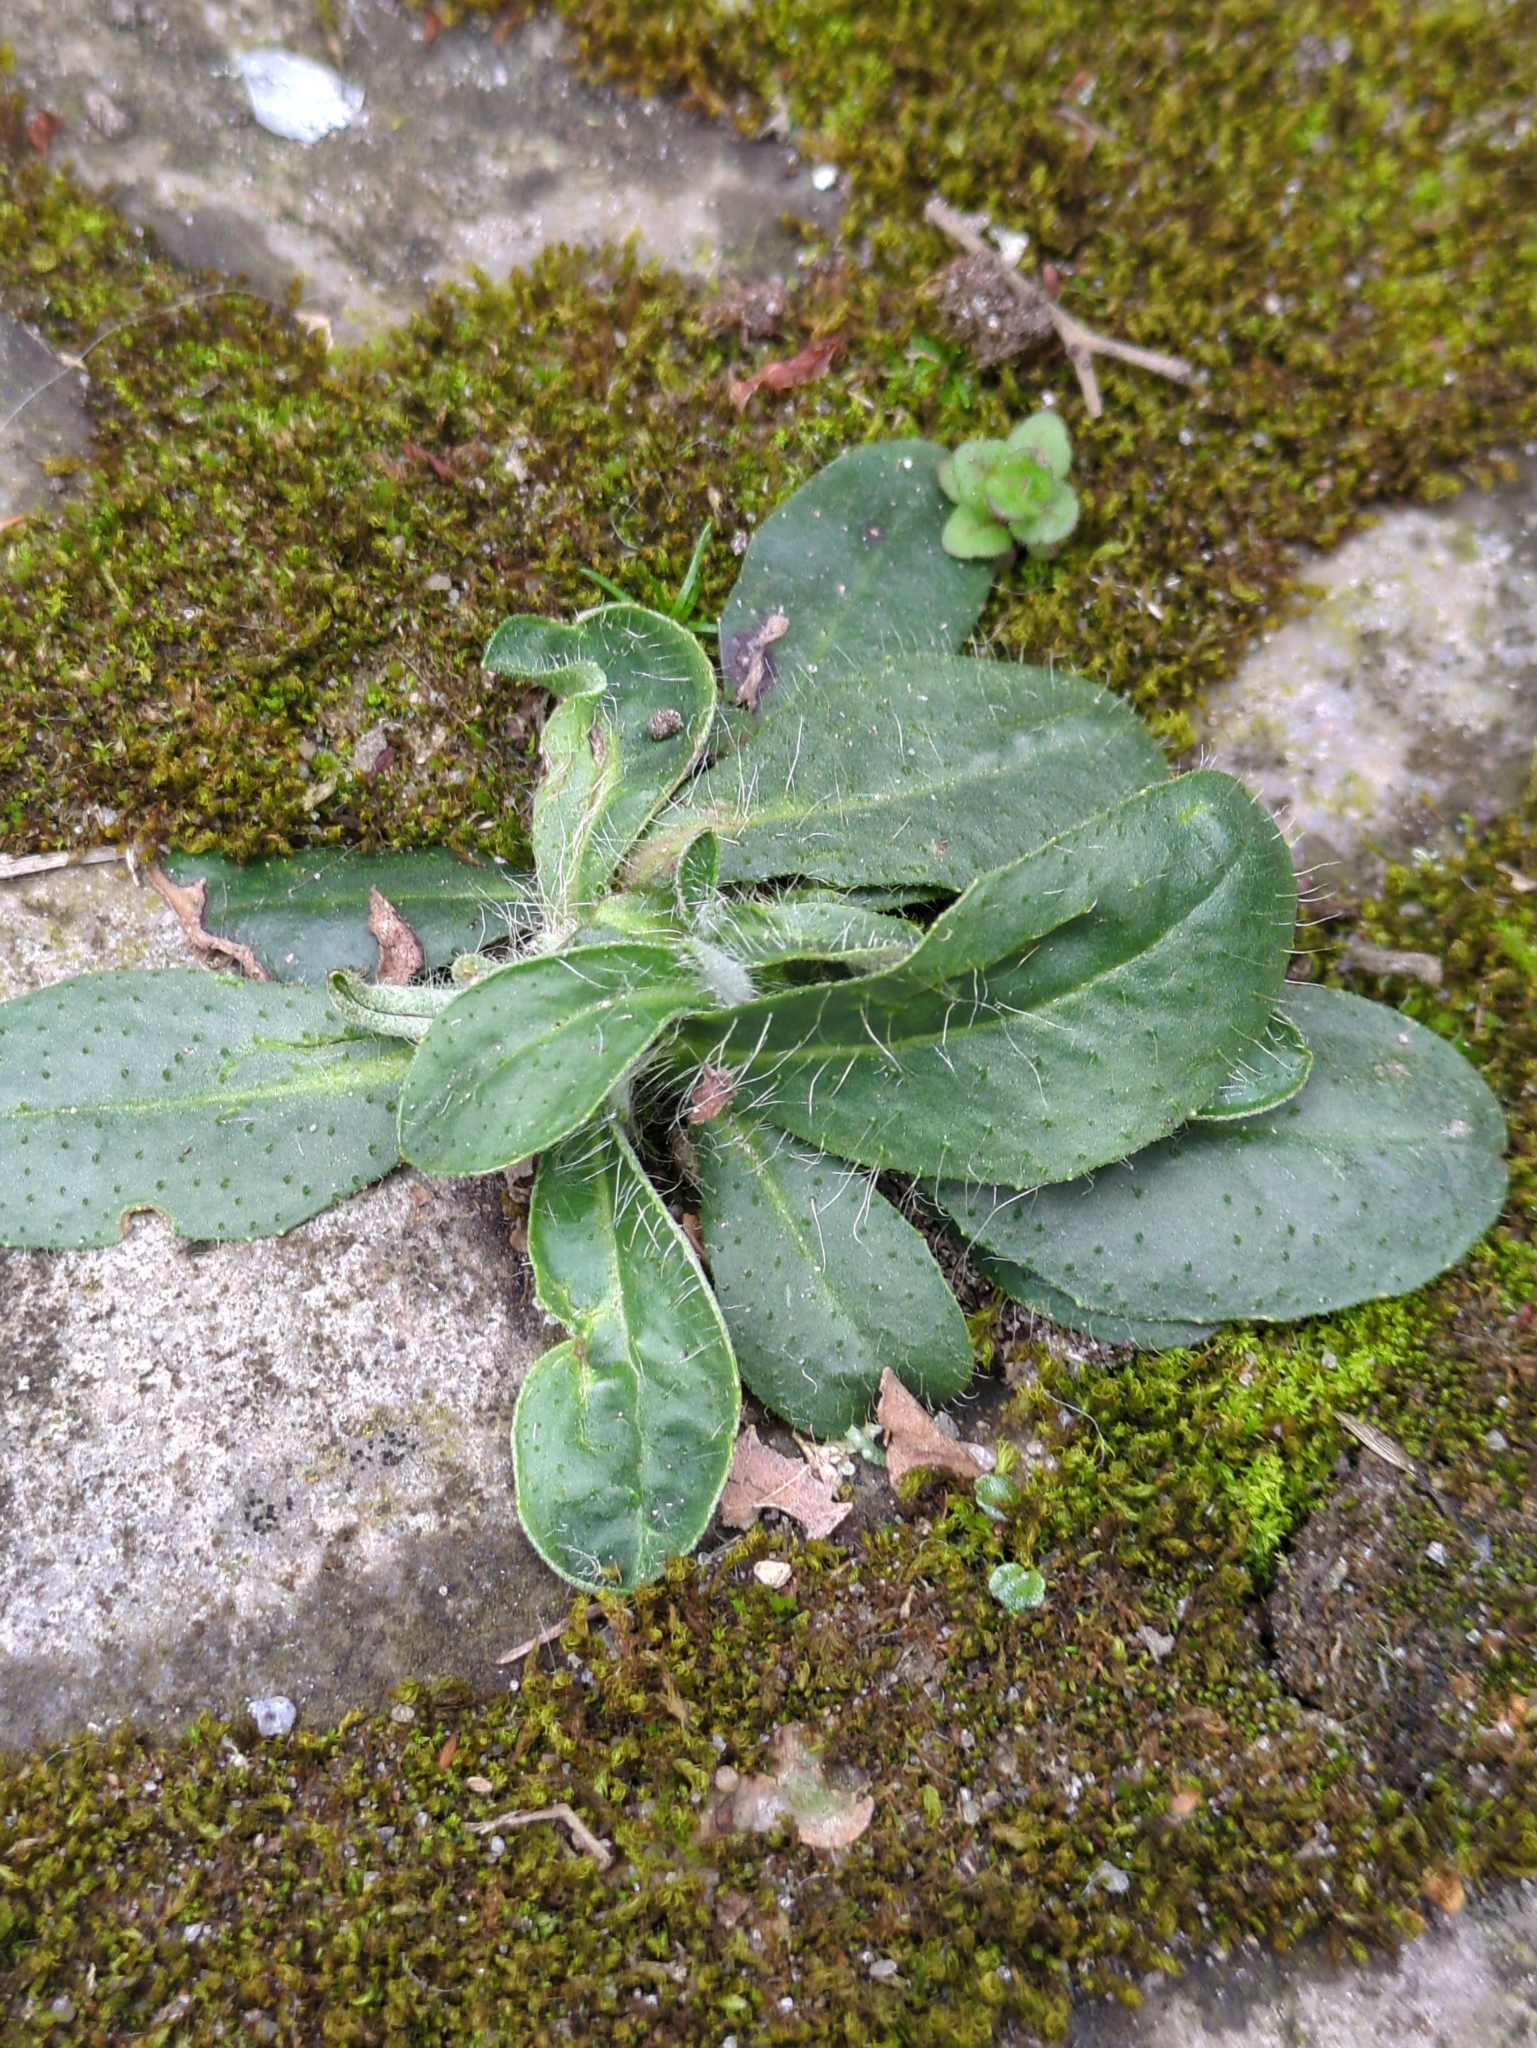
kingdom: Plantae
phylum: Tracheophyta
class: Magnoliopsida
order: Asterales
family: Asteraceae
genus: Pilosella
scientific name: Pilosella officinarum
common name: Mouse-ear hawkweed
